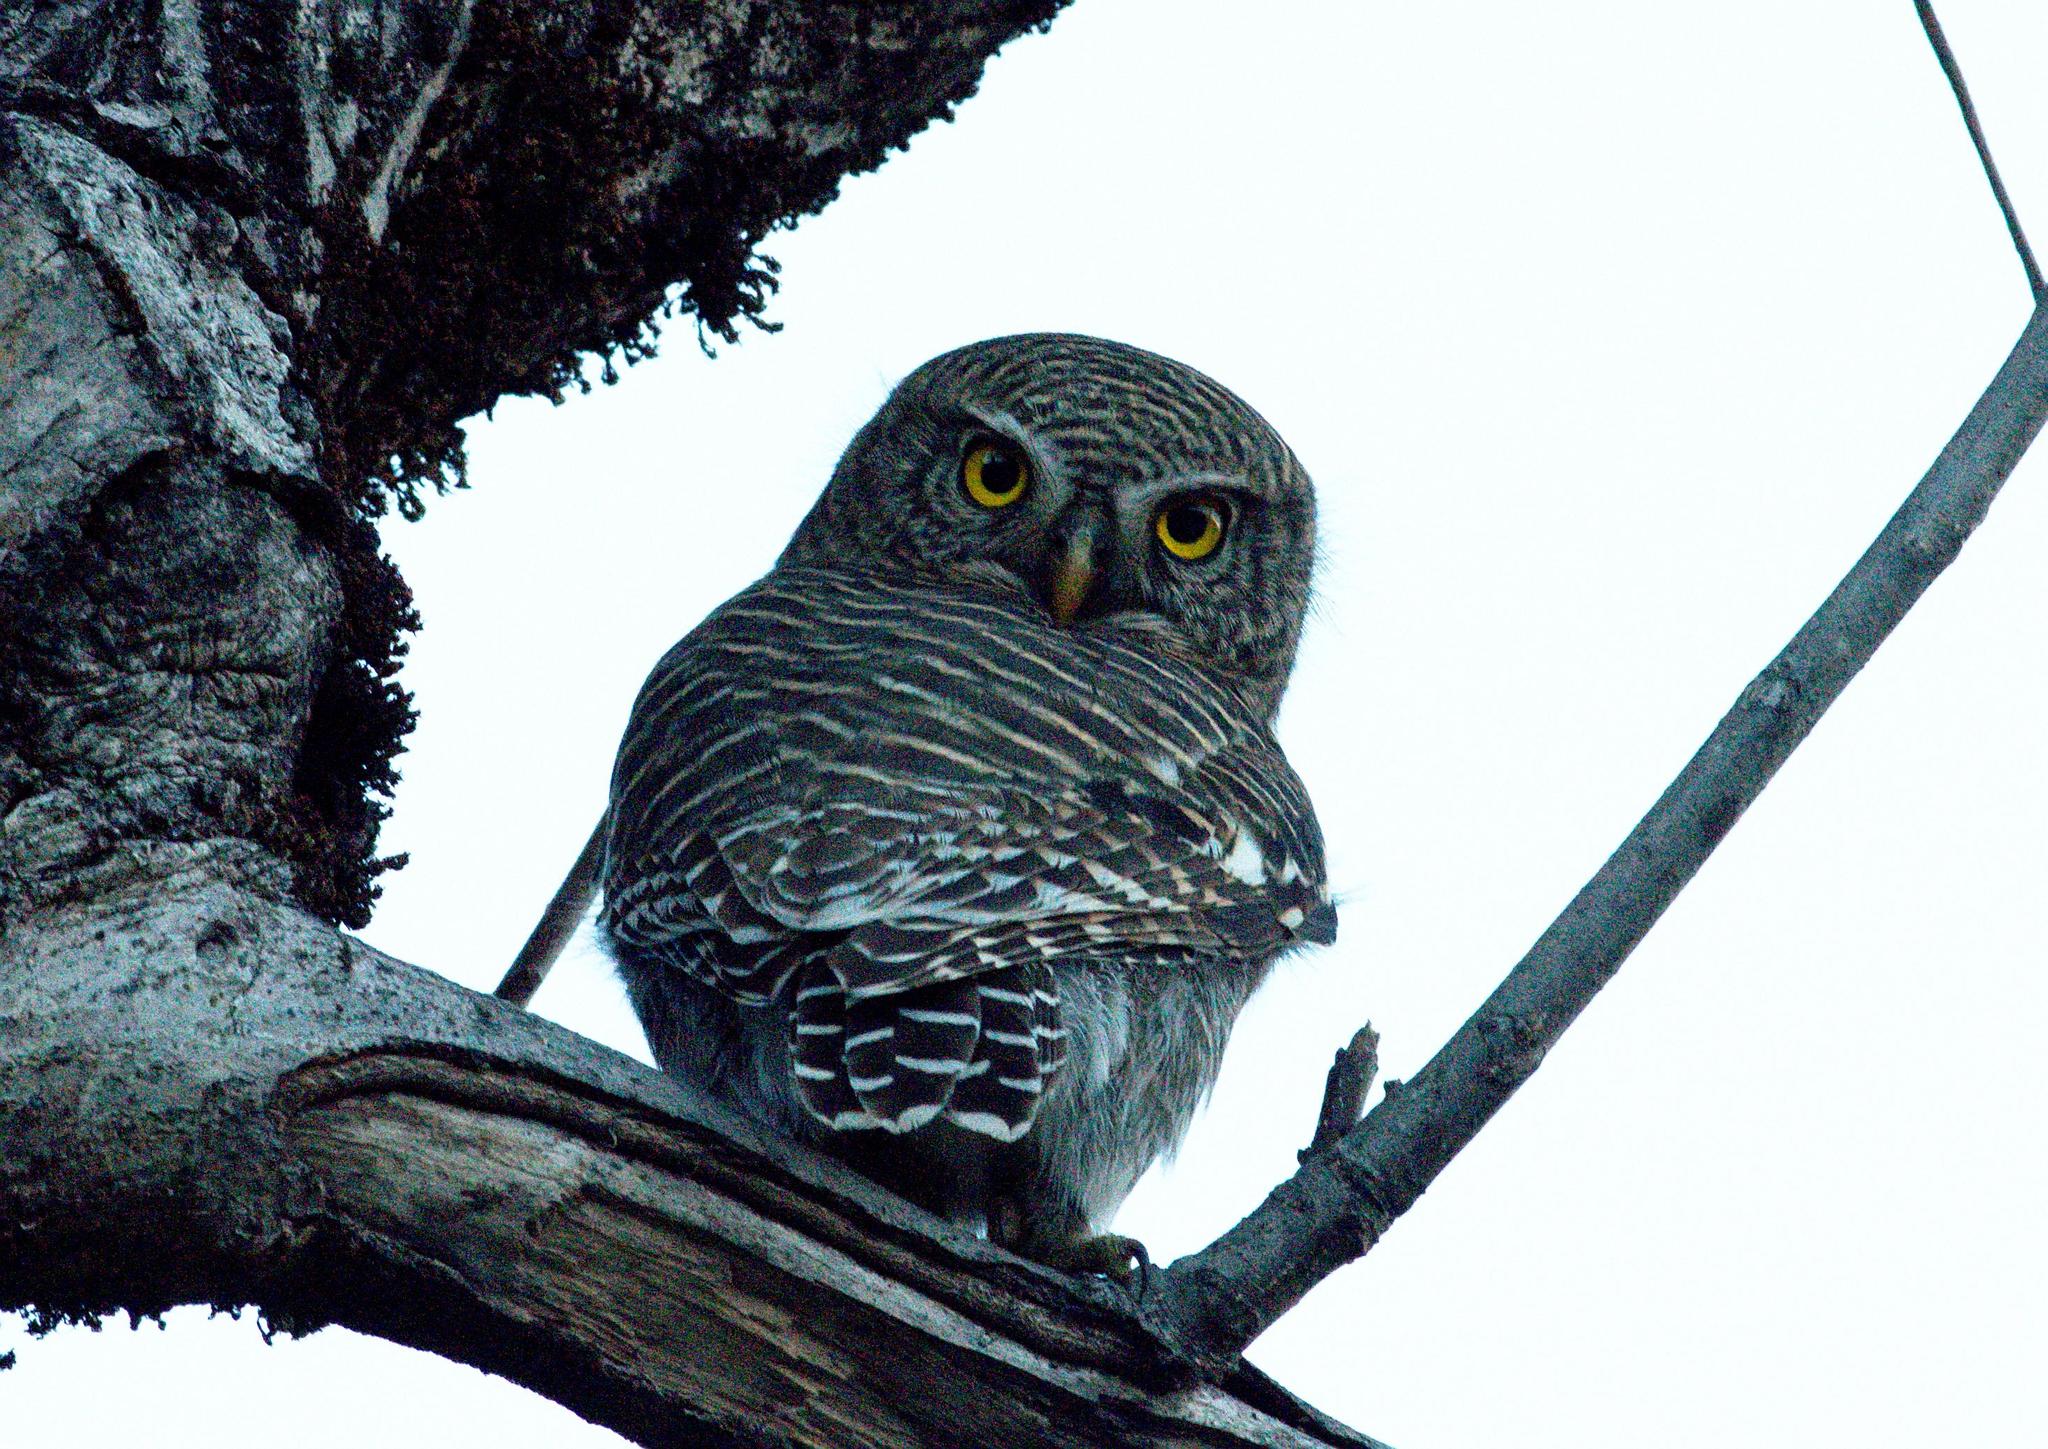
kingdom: Animalia
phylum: Chordata
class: Aves
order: Strigiformes
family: Strigidae
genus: Glaucidium
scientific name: Glaucidium cuculoides
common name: Asian barred owlet
